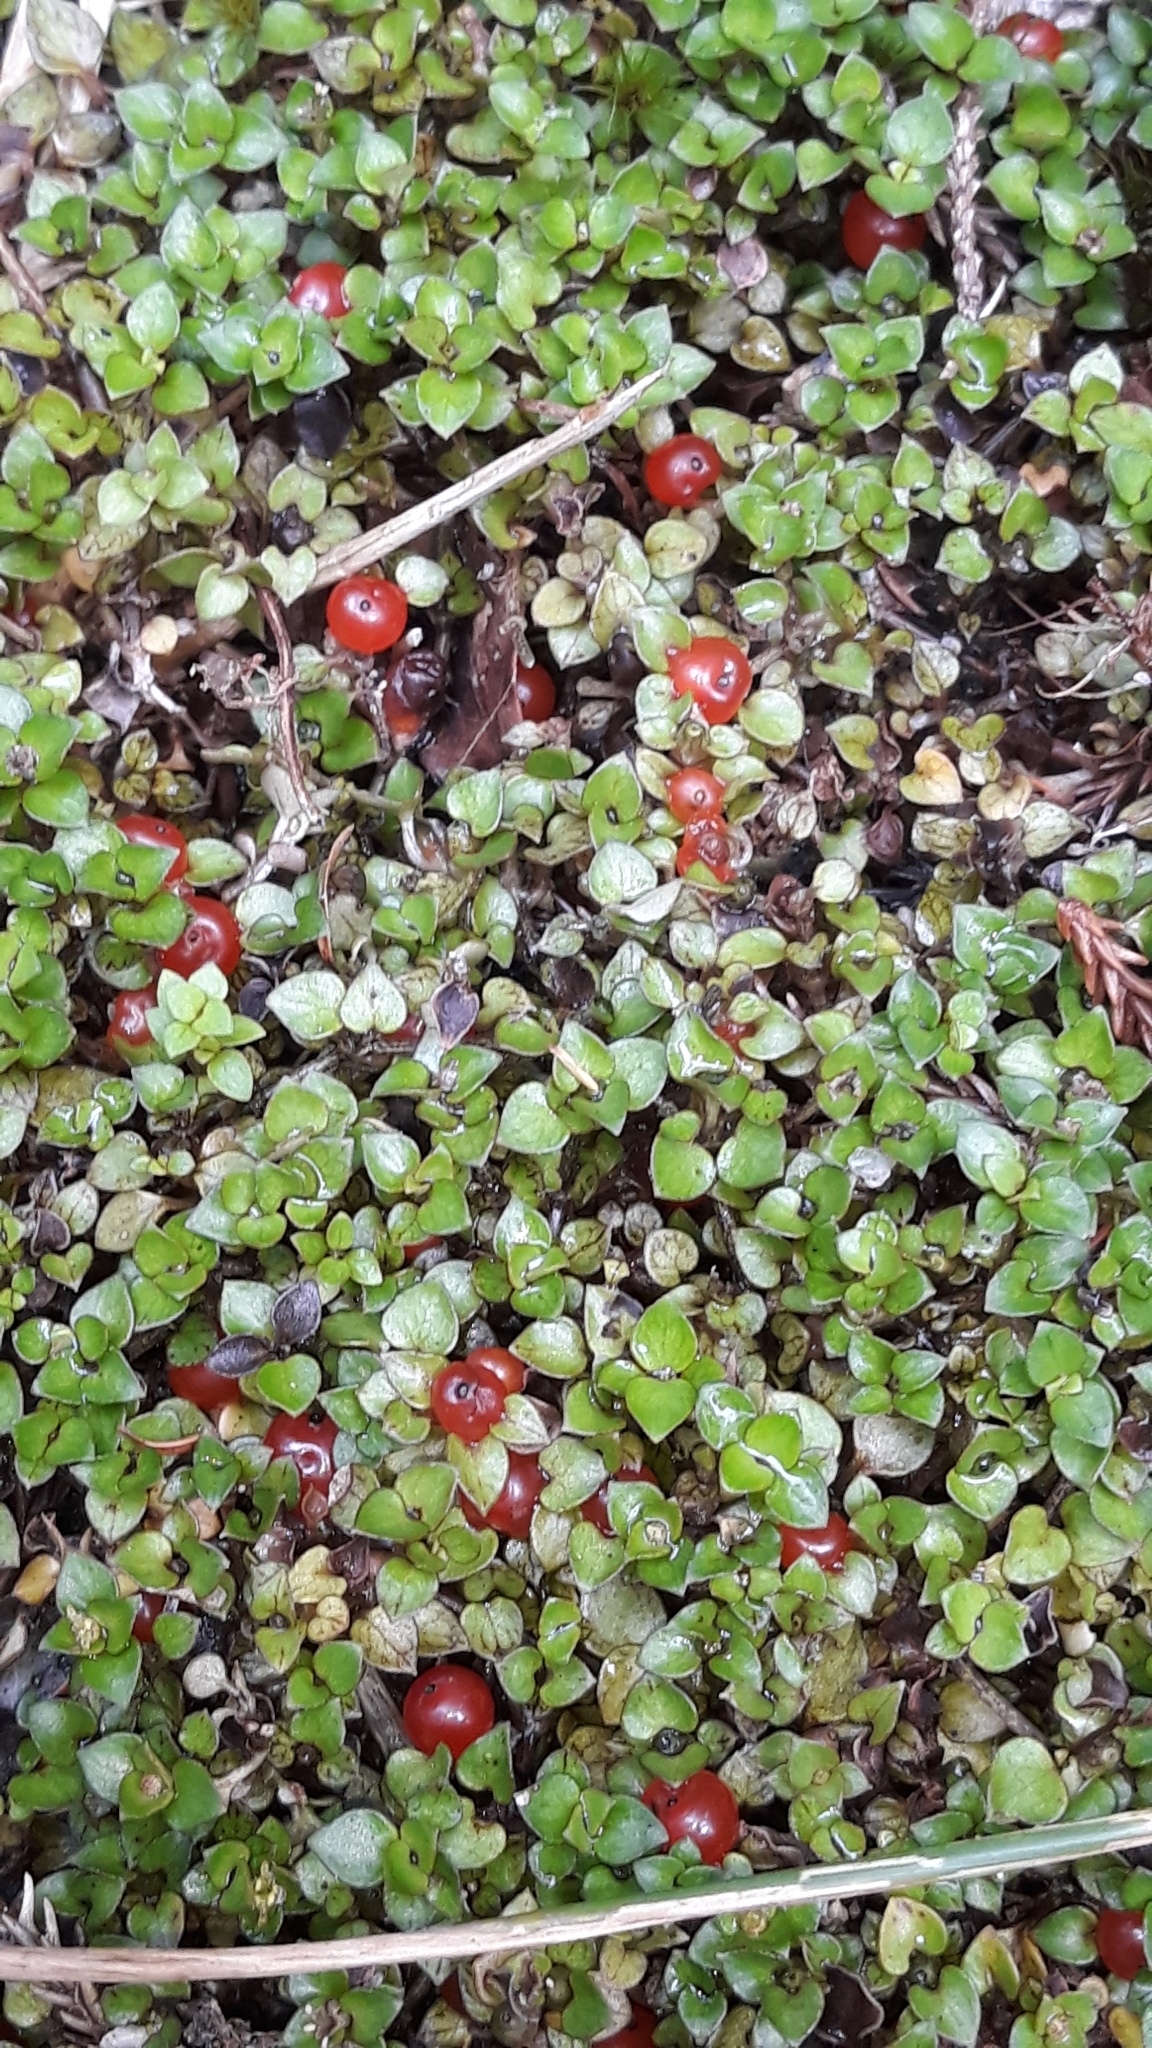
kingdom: Plantae
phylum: Tracheophyta
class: Magnoliopsida
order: Gentianales
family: Rubiaceae
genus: Nertera
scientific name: Nertera granadensis
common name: Beadplant
